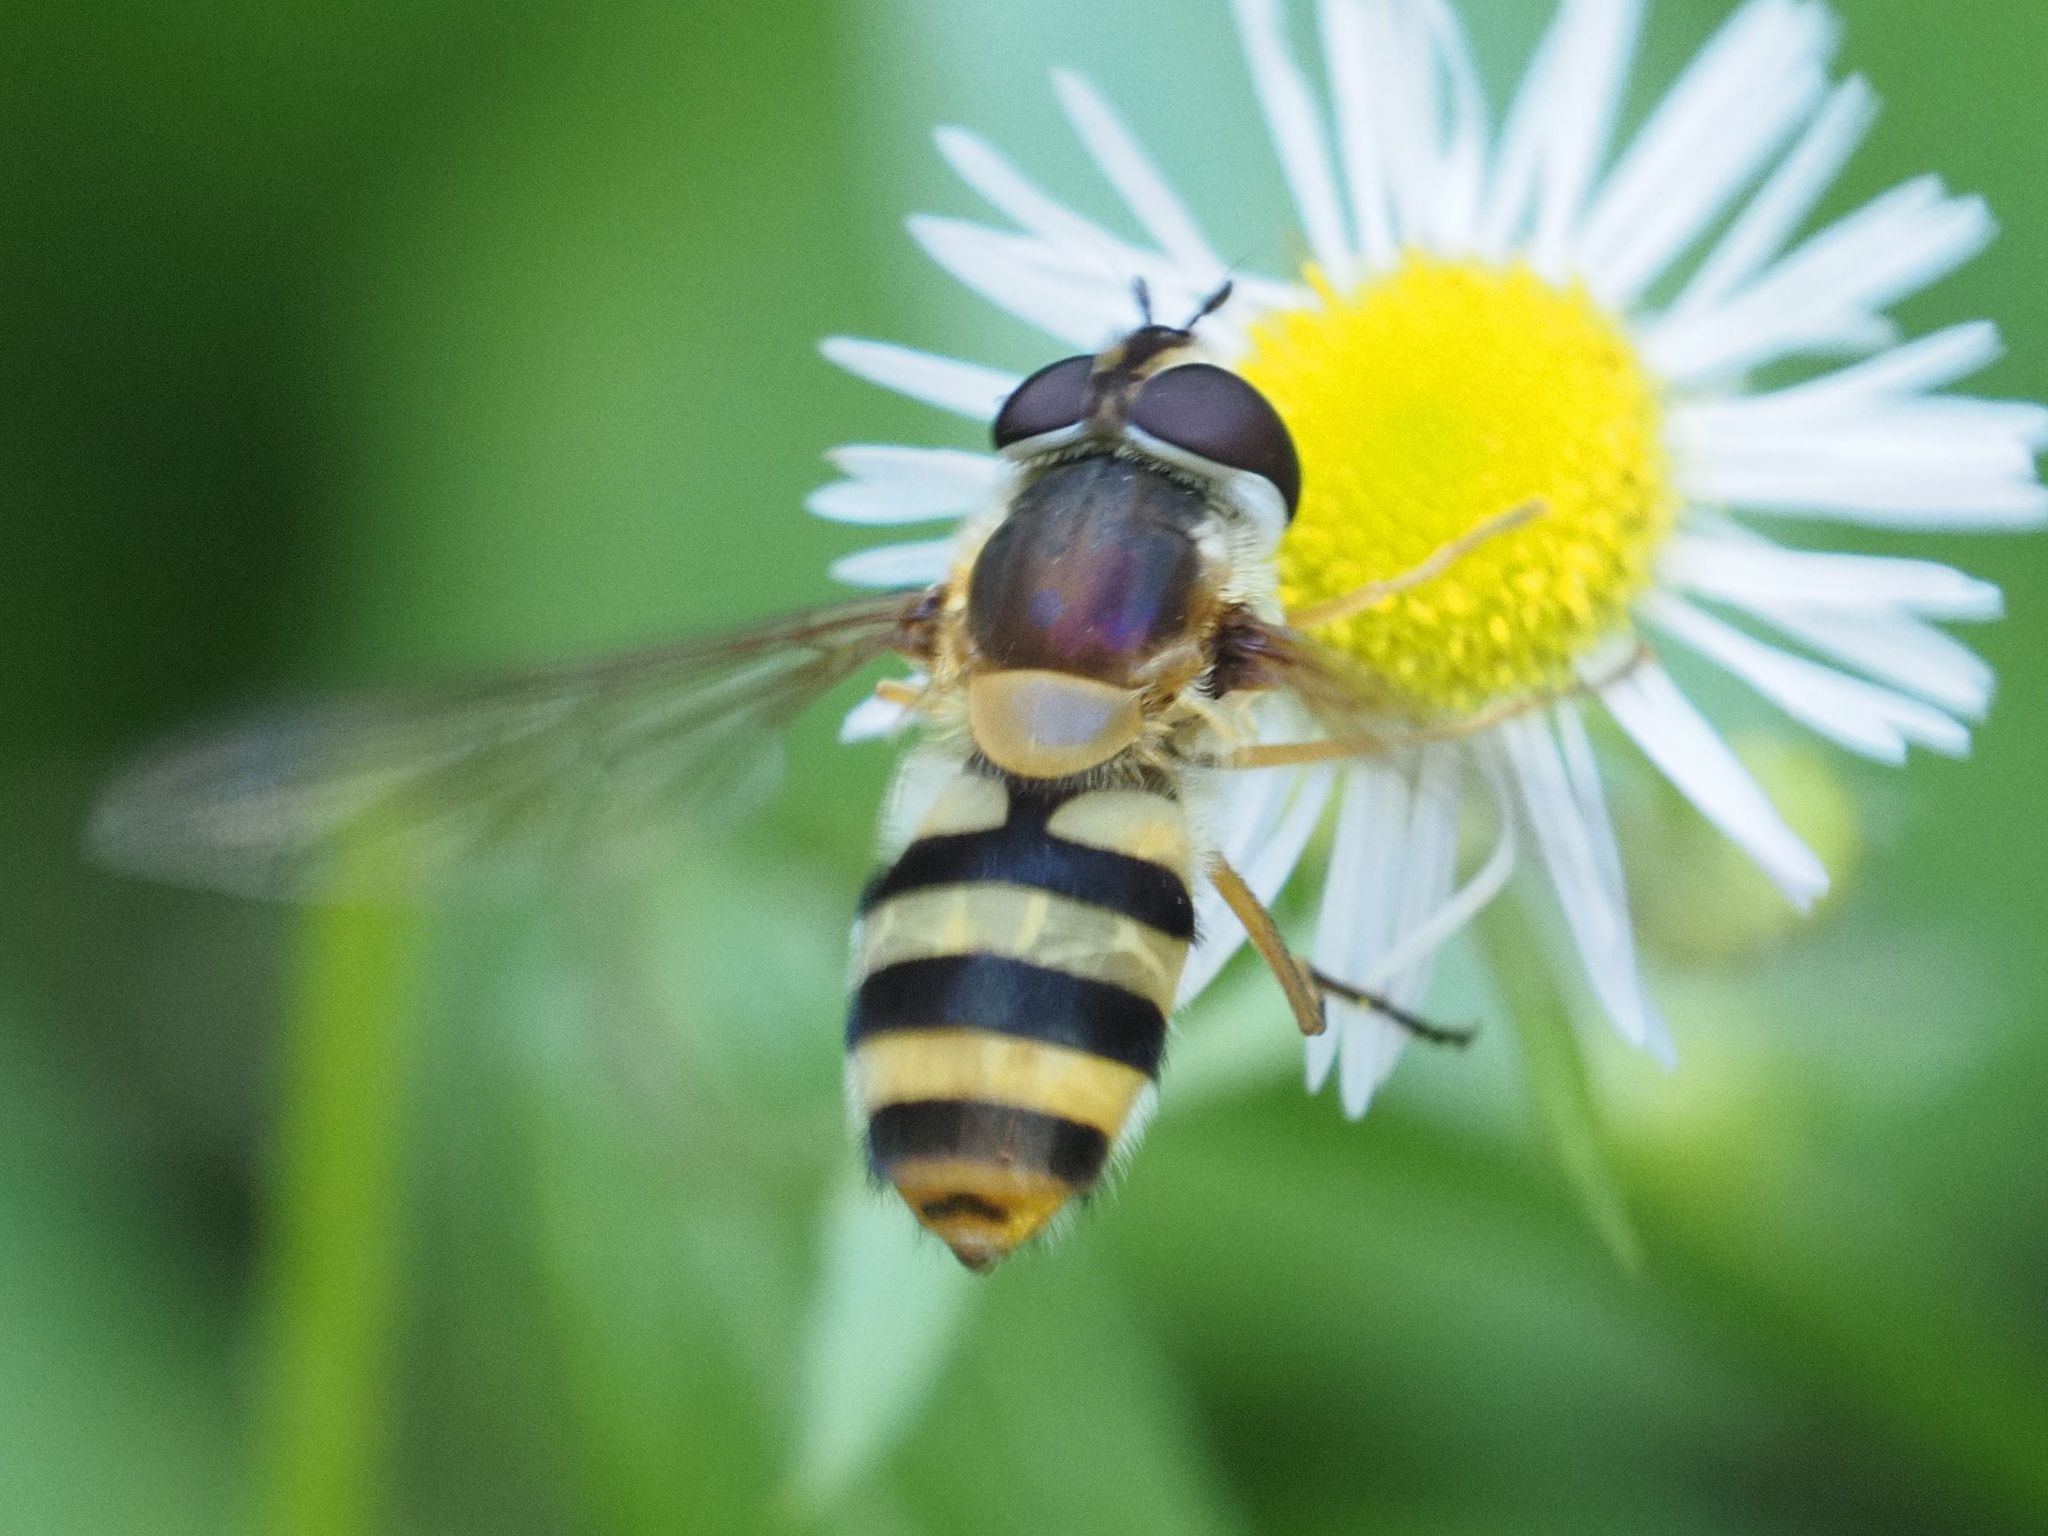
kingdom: Animalia
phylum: Arthropoda
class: Insecta
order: Diptera
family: Syrphidae
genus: Epistrophe
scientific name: Epistrophe grossulariae
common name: Black-horned smoothtail
